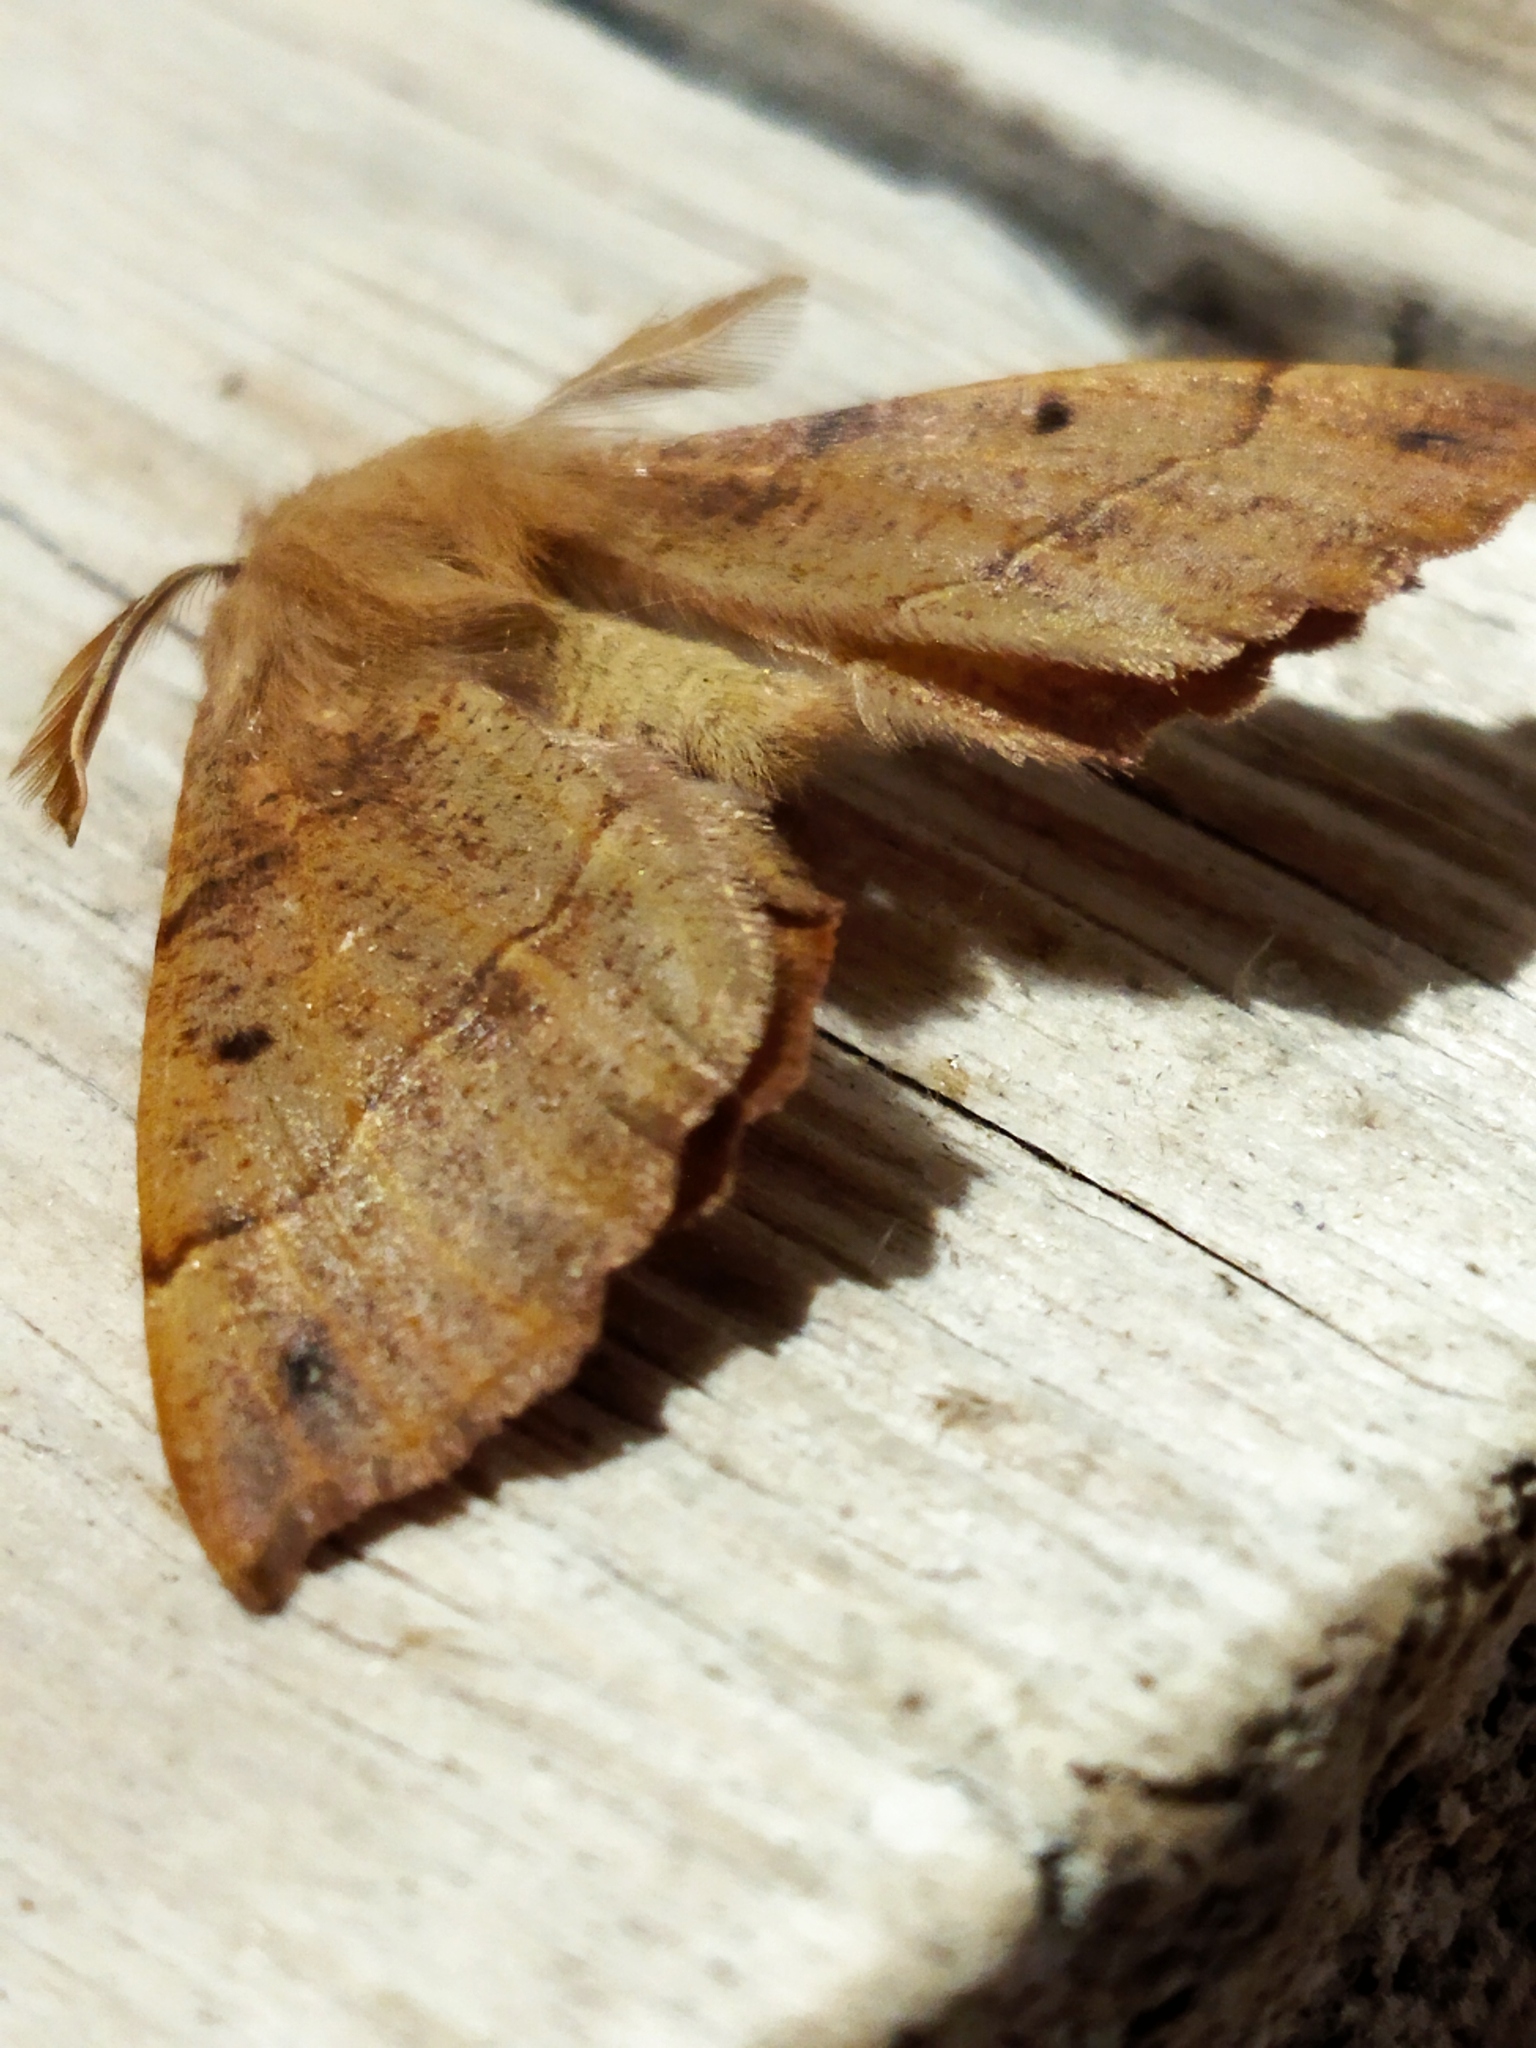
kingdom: Animalia
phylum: Arthropoda
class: Insecta
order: Lepidoptera
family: Geometridae
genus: Colotois
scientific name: Colotois pennaria
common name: Feathered thorn
